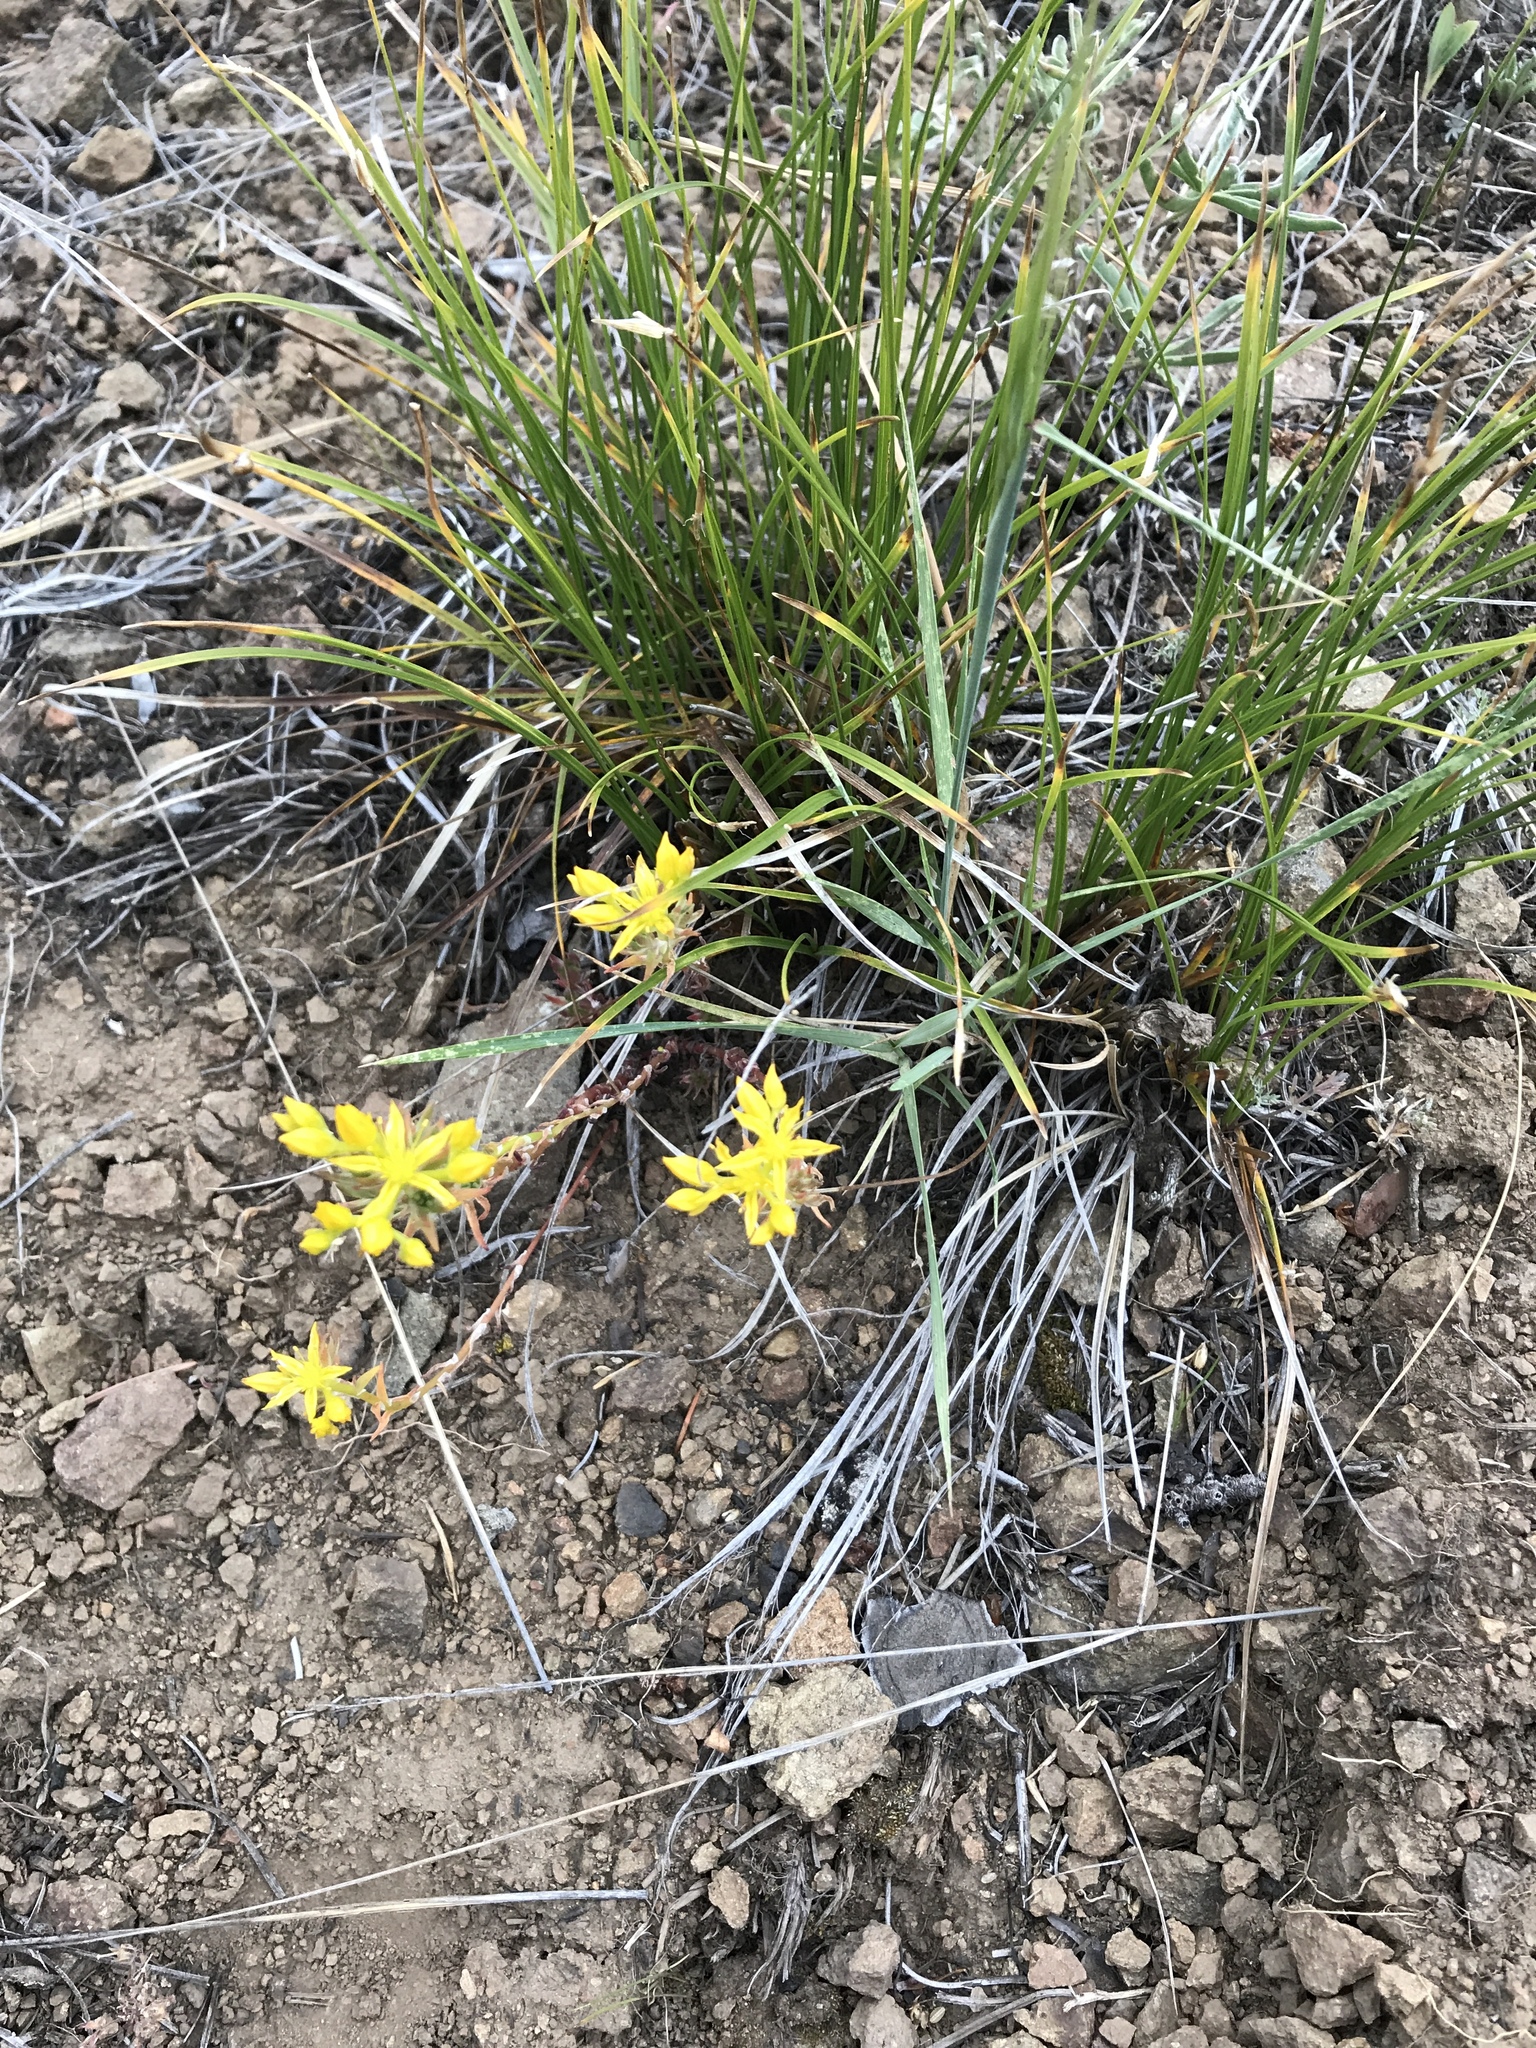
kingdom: Plantae
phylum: Tracheophyta
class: Magnoliopsida
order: Saxifragales
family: Crassulaceae
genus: Sedum
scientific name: Sedum stenopetalum
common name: Narrow-petaled stonecrop
